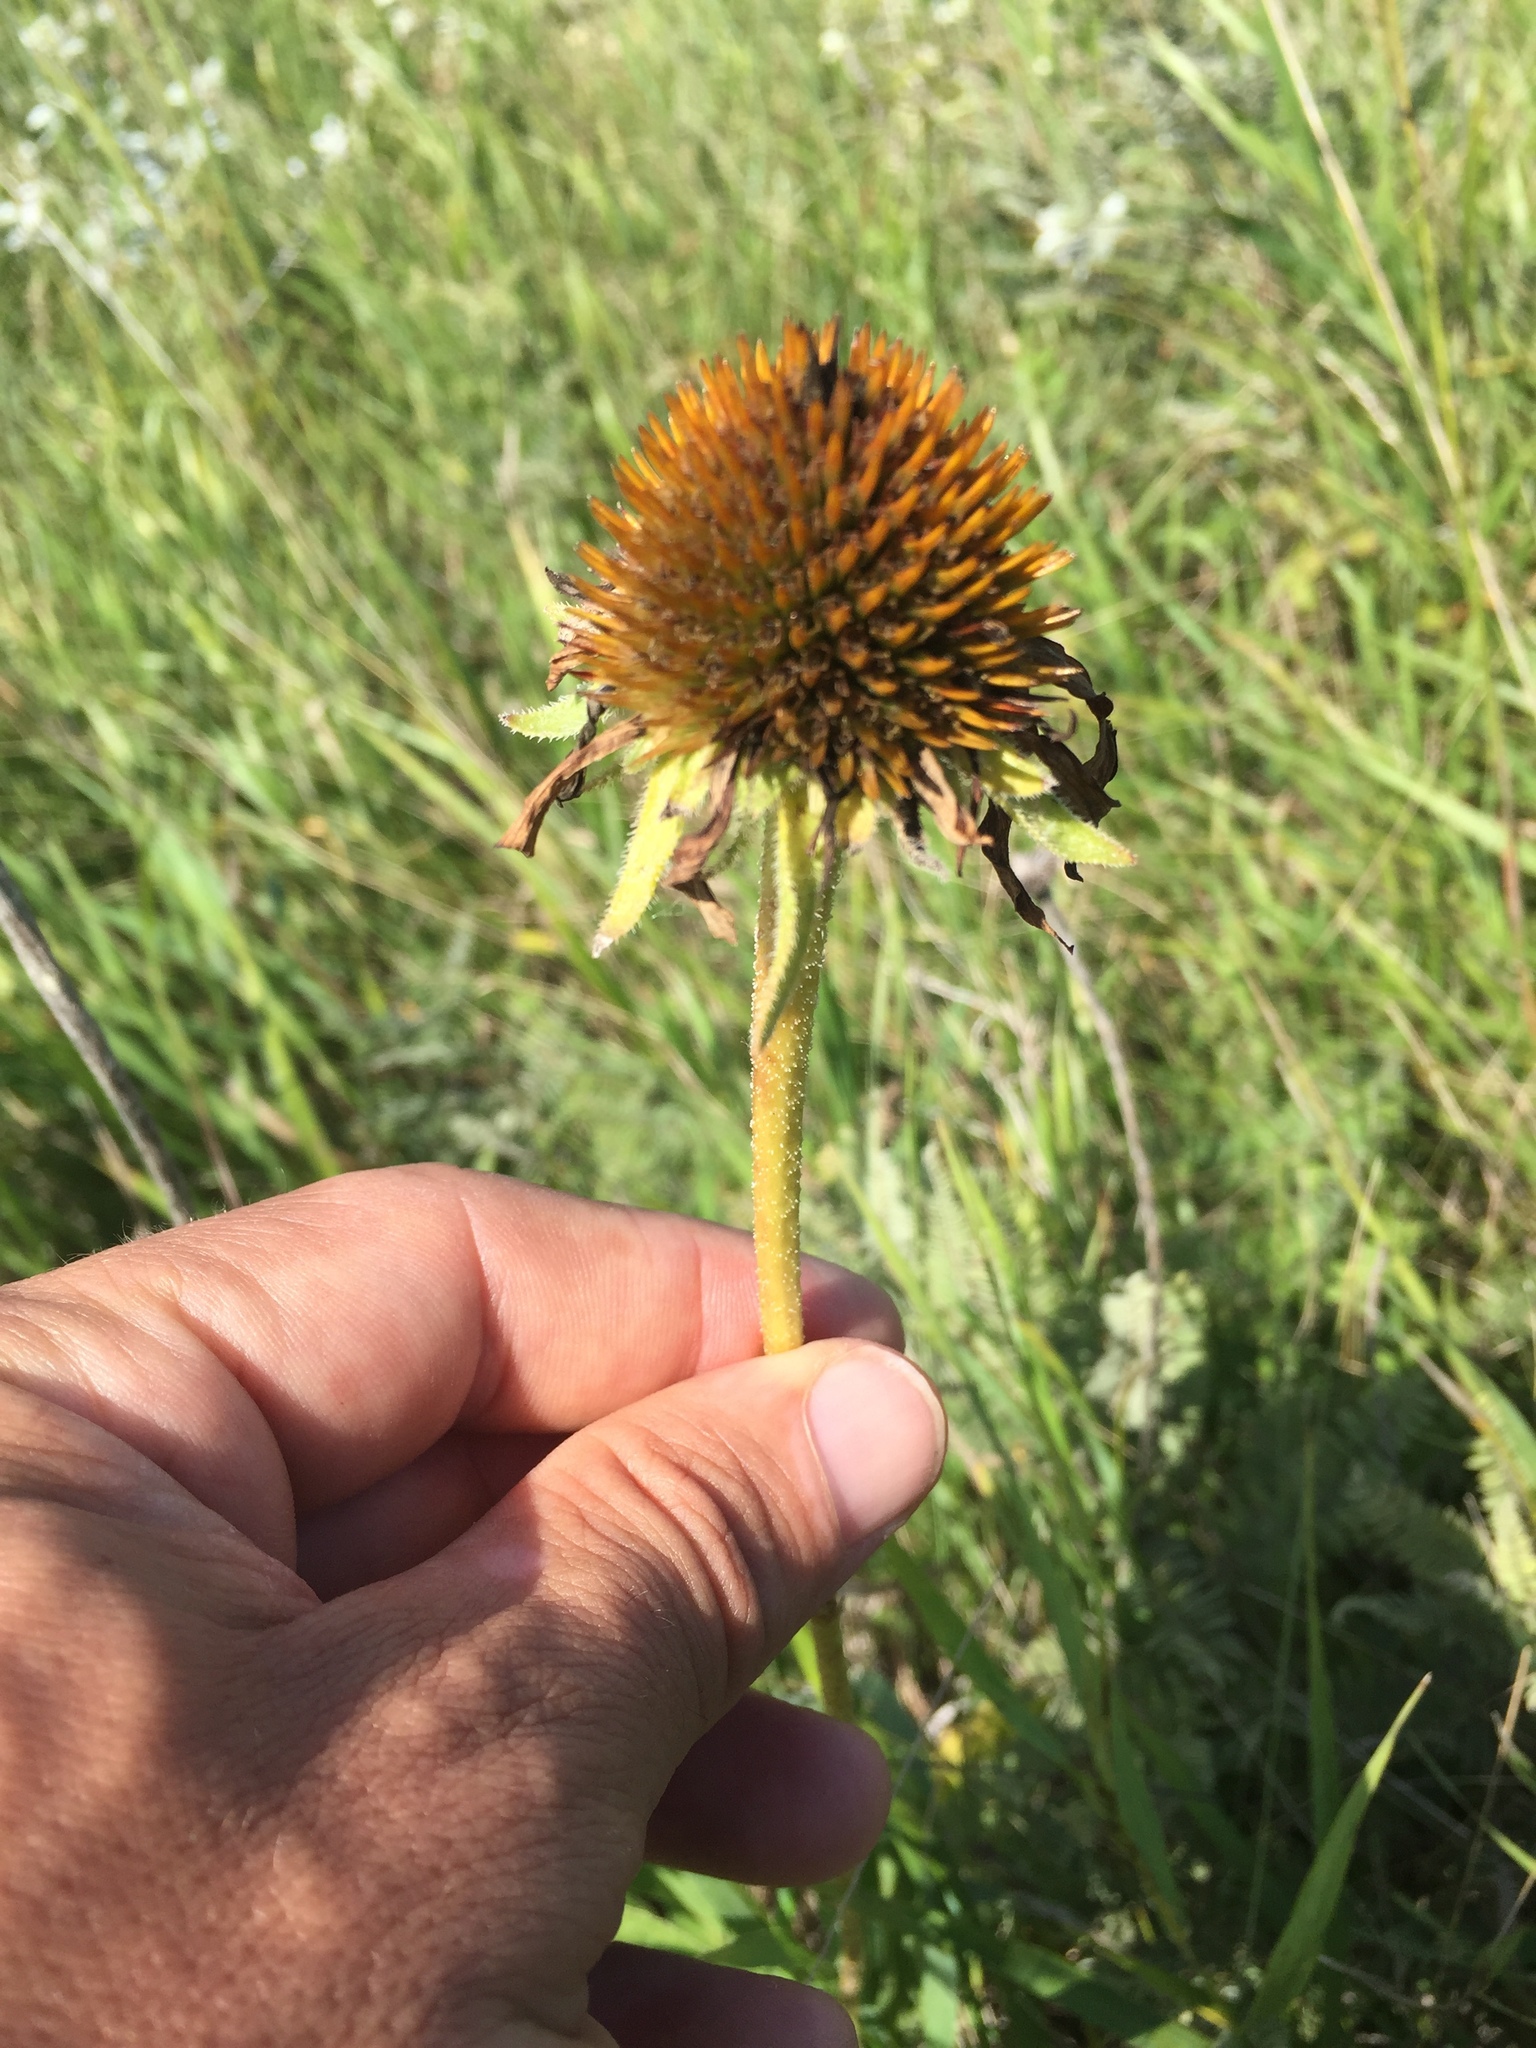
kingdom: Plantae
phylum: Tracheophyta
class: Magnoliopsida
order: Asterales
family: Asteraceae
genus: Echinacea
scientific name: Echinacea angustifolia
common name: Black-sampson echinacea
